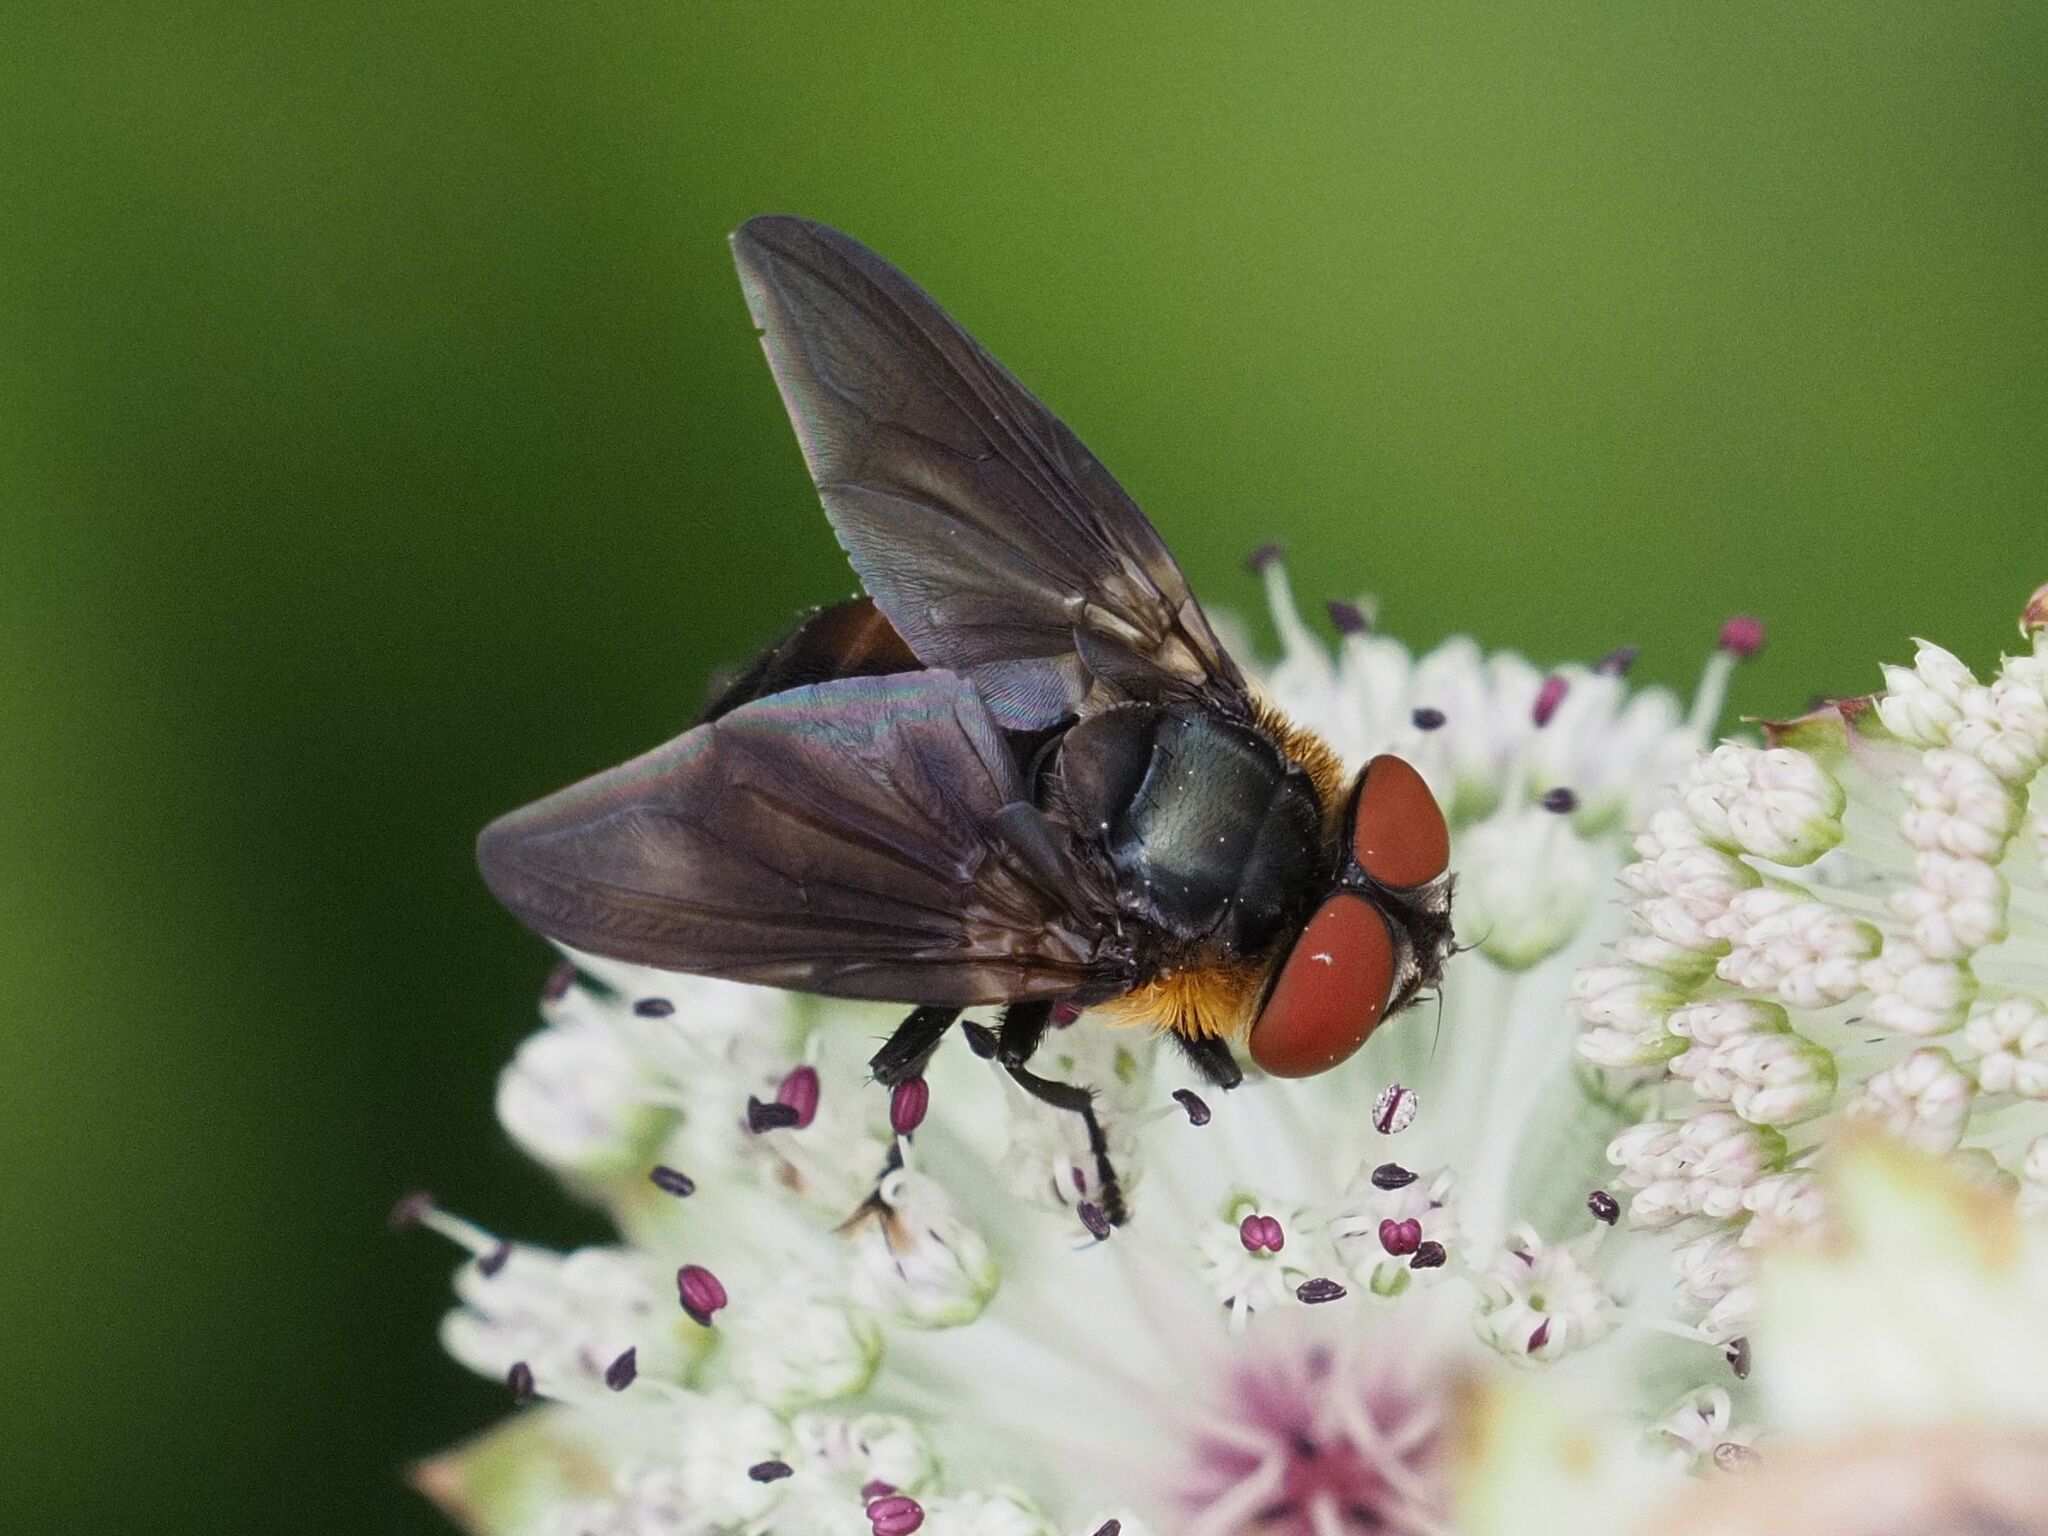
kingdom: Animalia
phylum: Arthropoda
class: Insecta
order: Diptera
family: Tachinidae
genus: Phasia
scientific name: Phasia hemiptera
